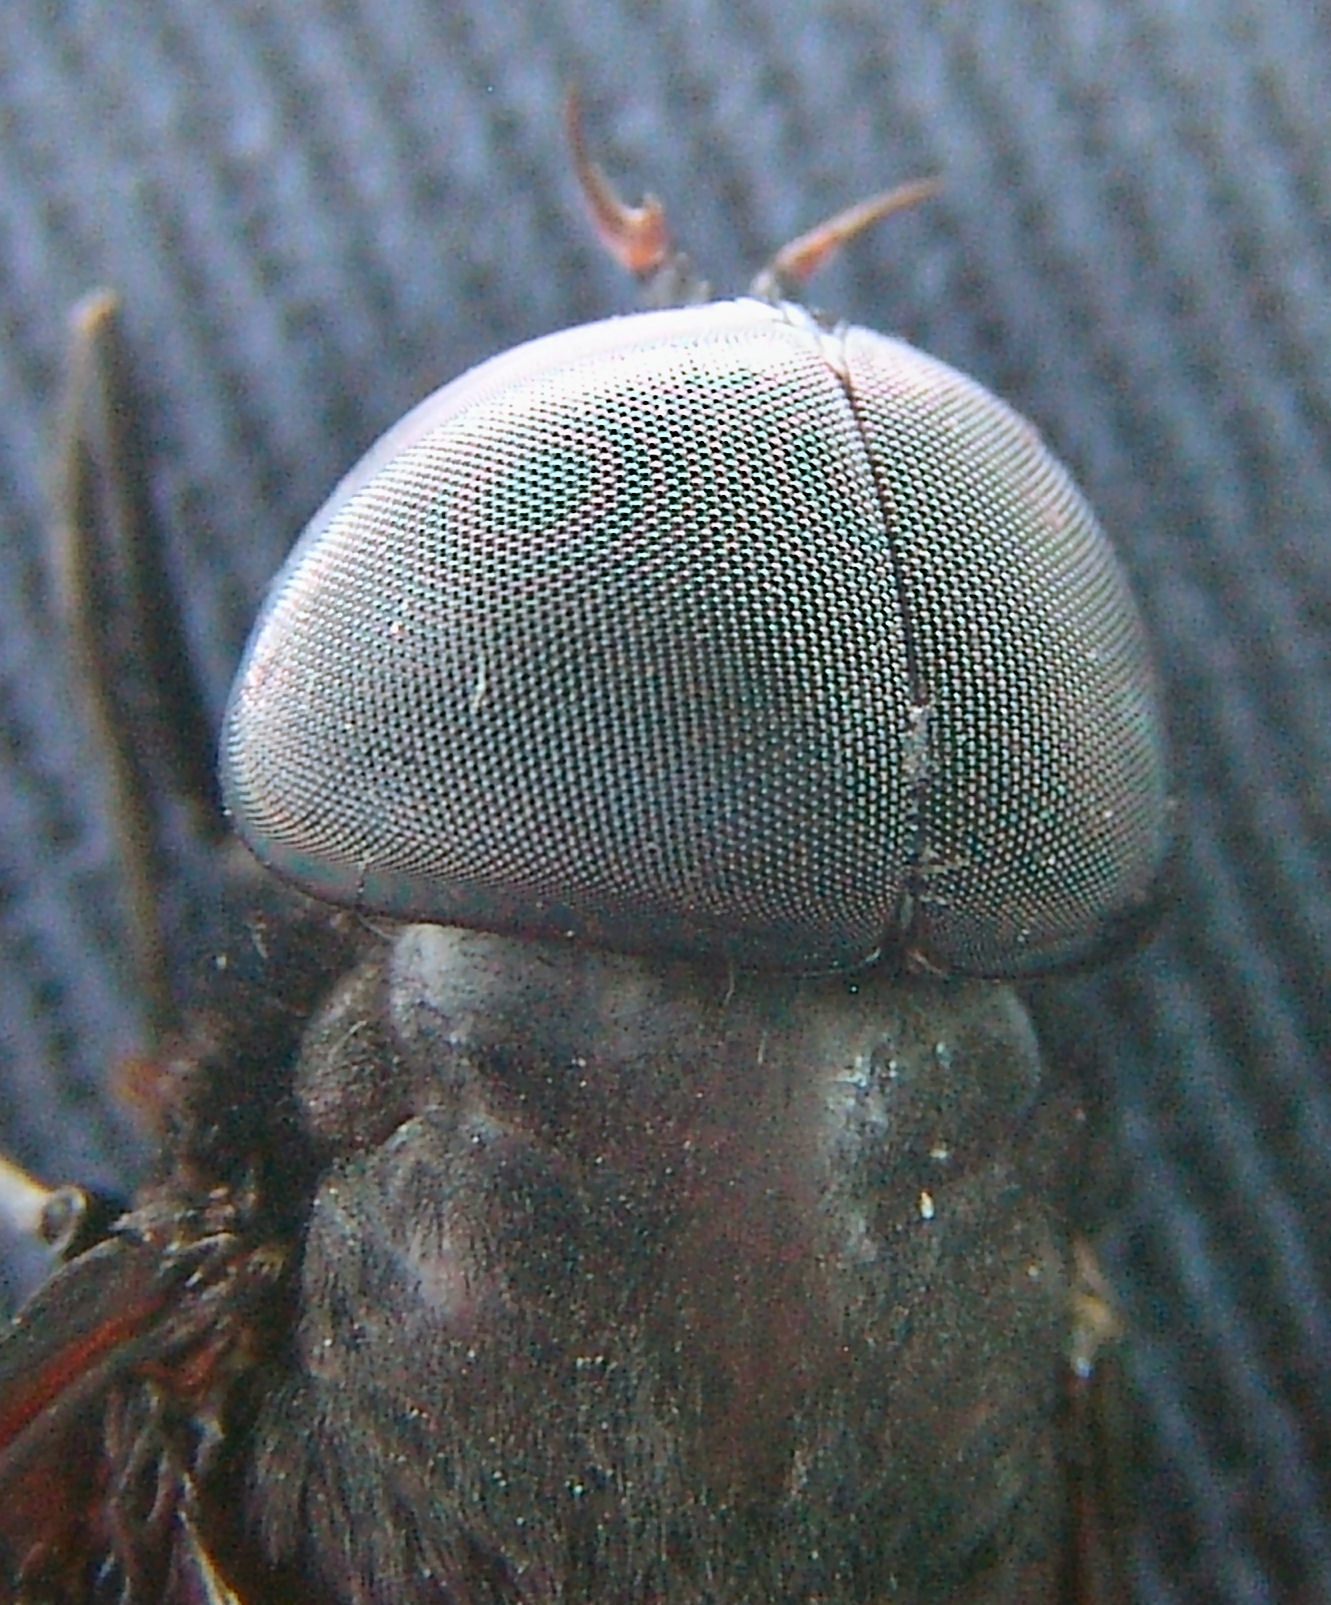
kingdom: Animalia
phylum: Arthropoda
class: Insecta
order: Diptera
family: Tabanidae
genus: Tabanus
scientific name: Tabanus atratus
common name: Black horse fly
